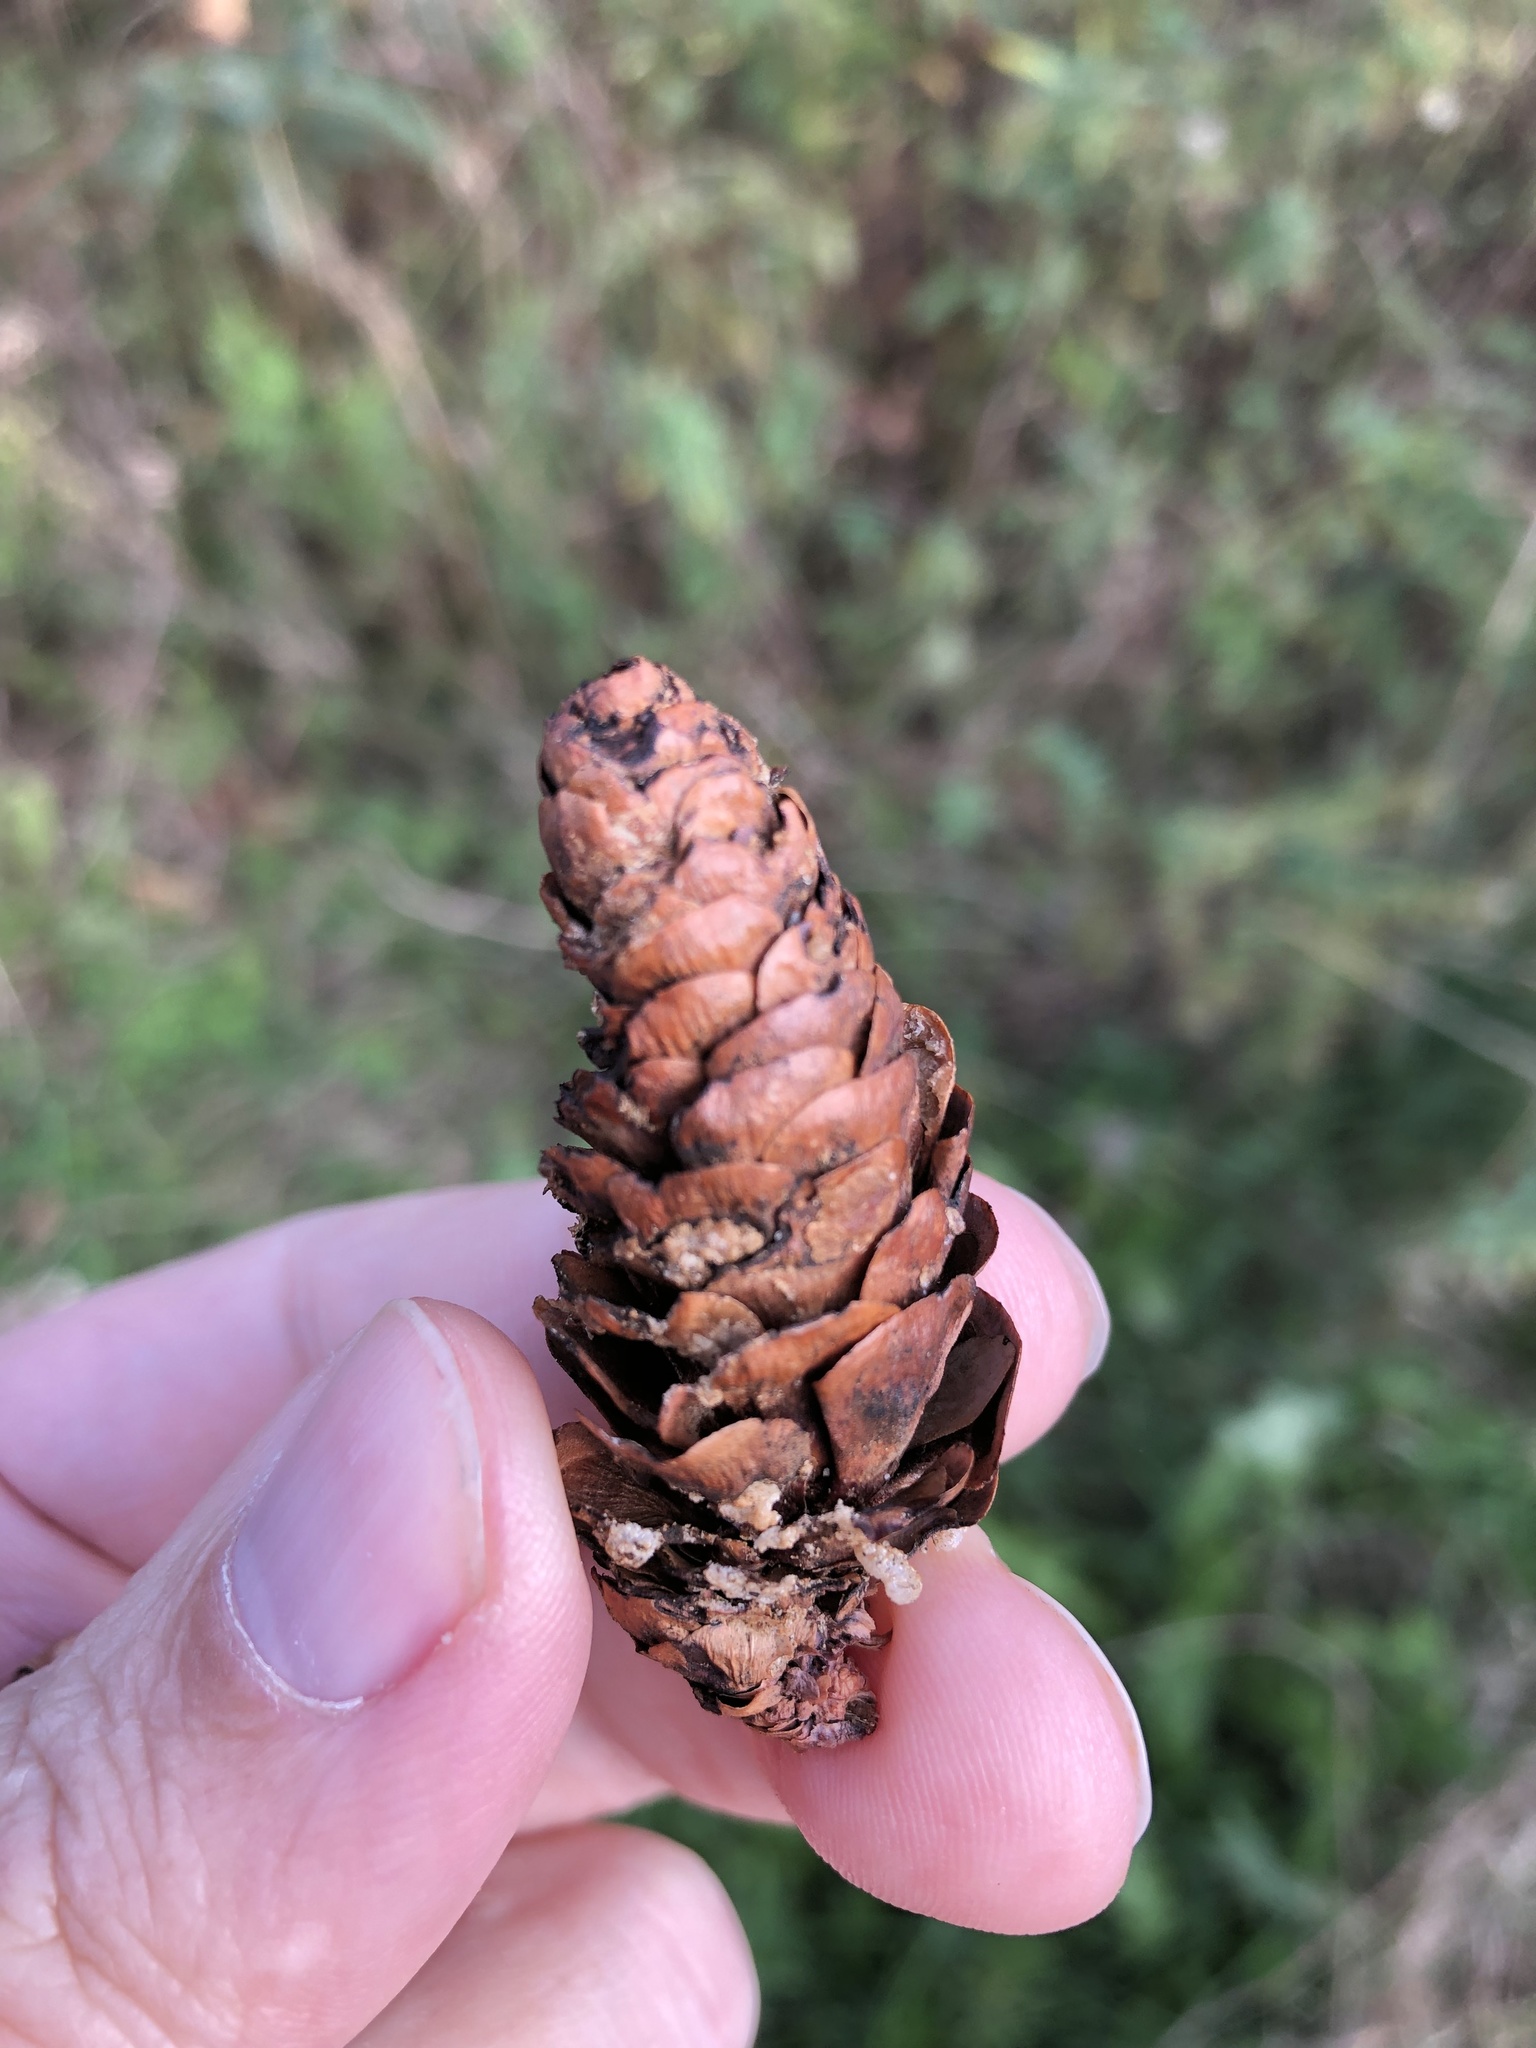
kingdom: Plantae
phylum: Tracheophyta
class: Pinopsida
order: Pinales
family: Pinaceae
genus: Picea
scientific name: Picea glauca
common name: White spruce
